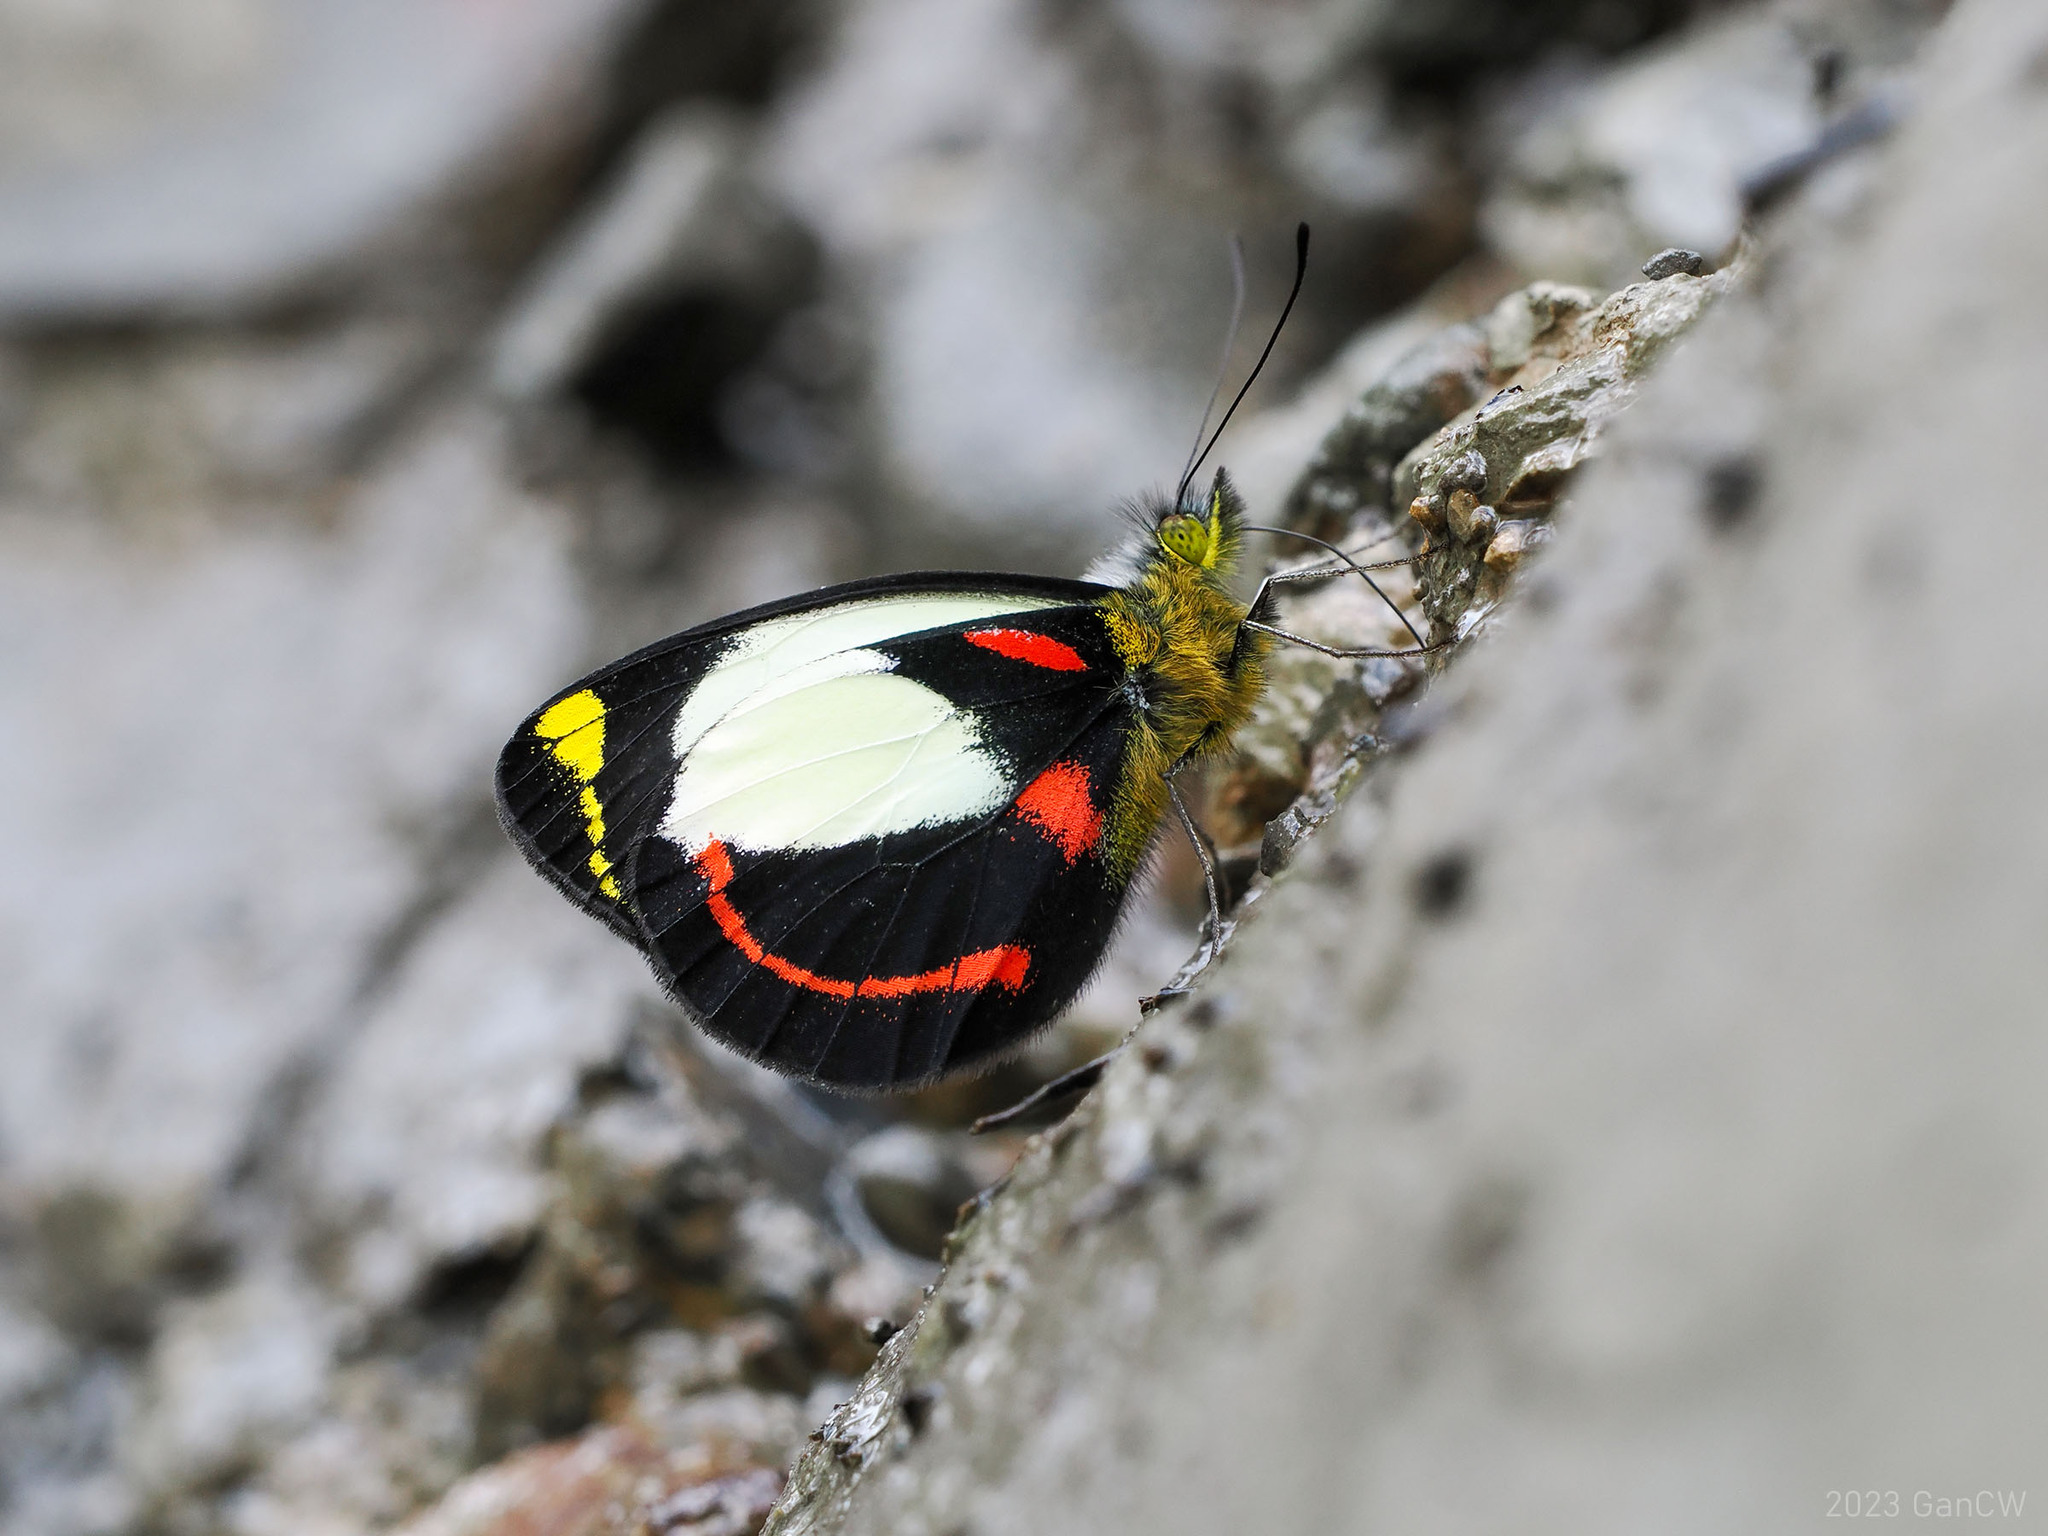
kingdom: Animalia
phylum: Arthropoda
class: Insecta
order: Lepidoptera
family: Pieridae
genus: Delias
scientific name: Delias alepa
